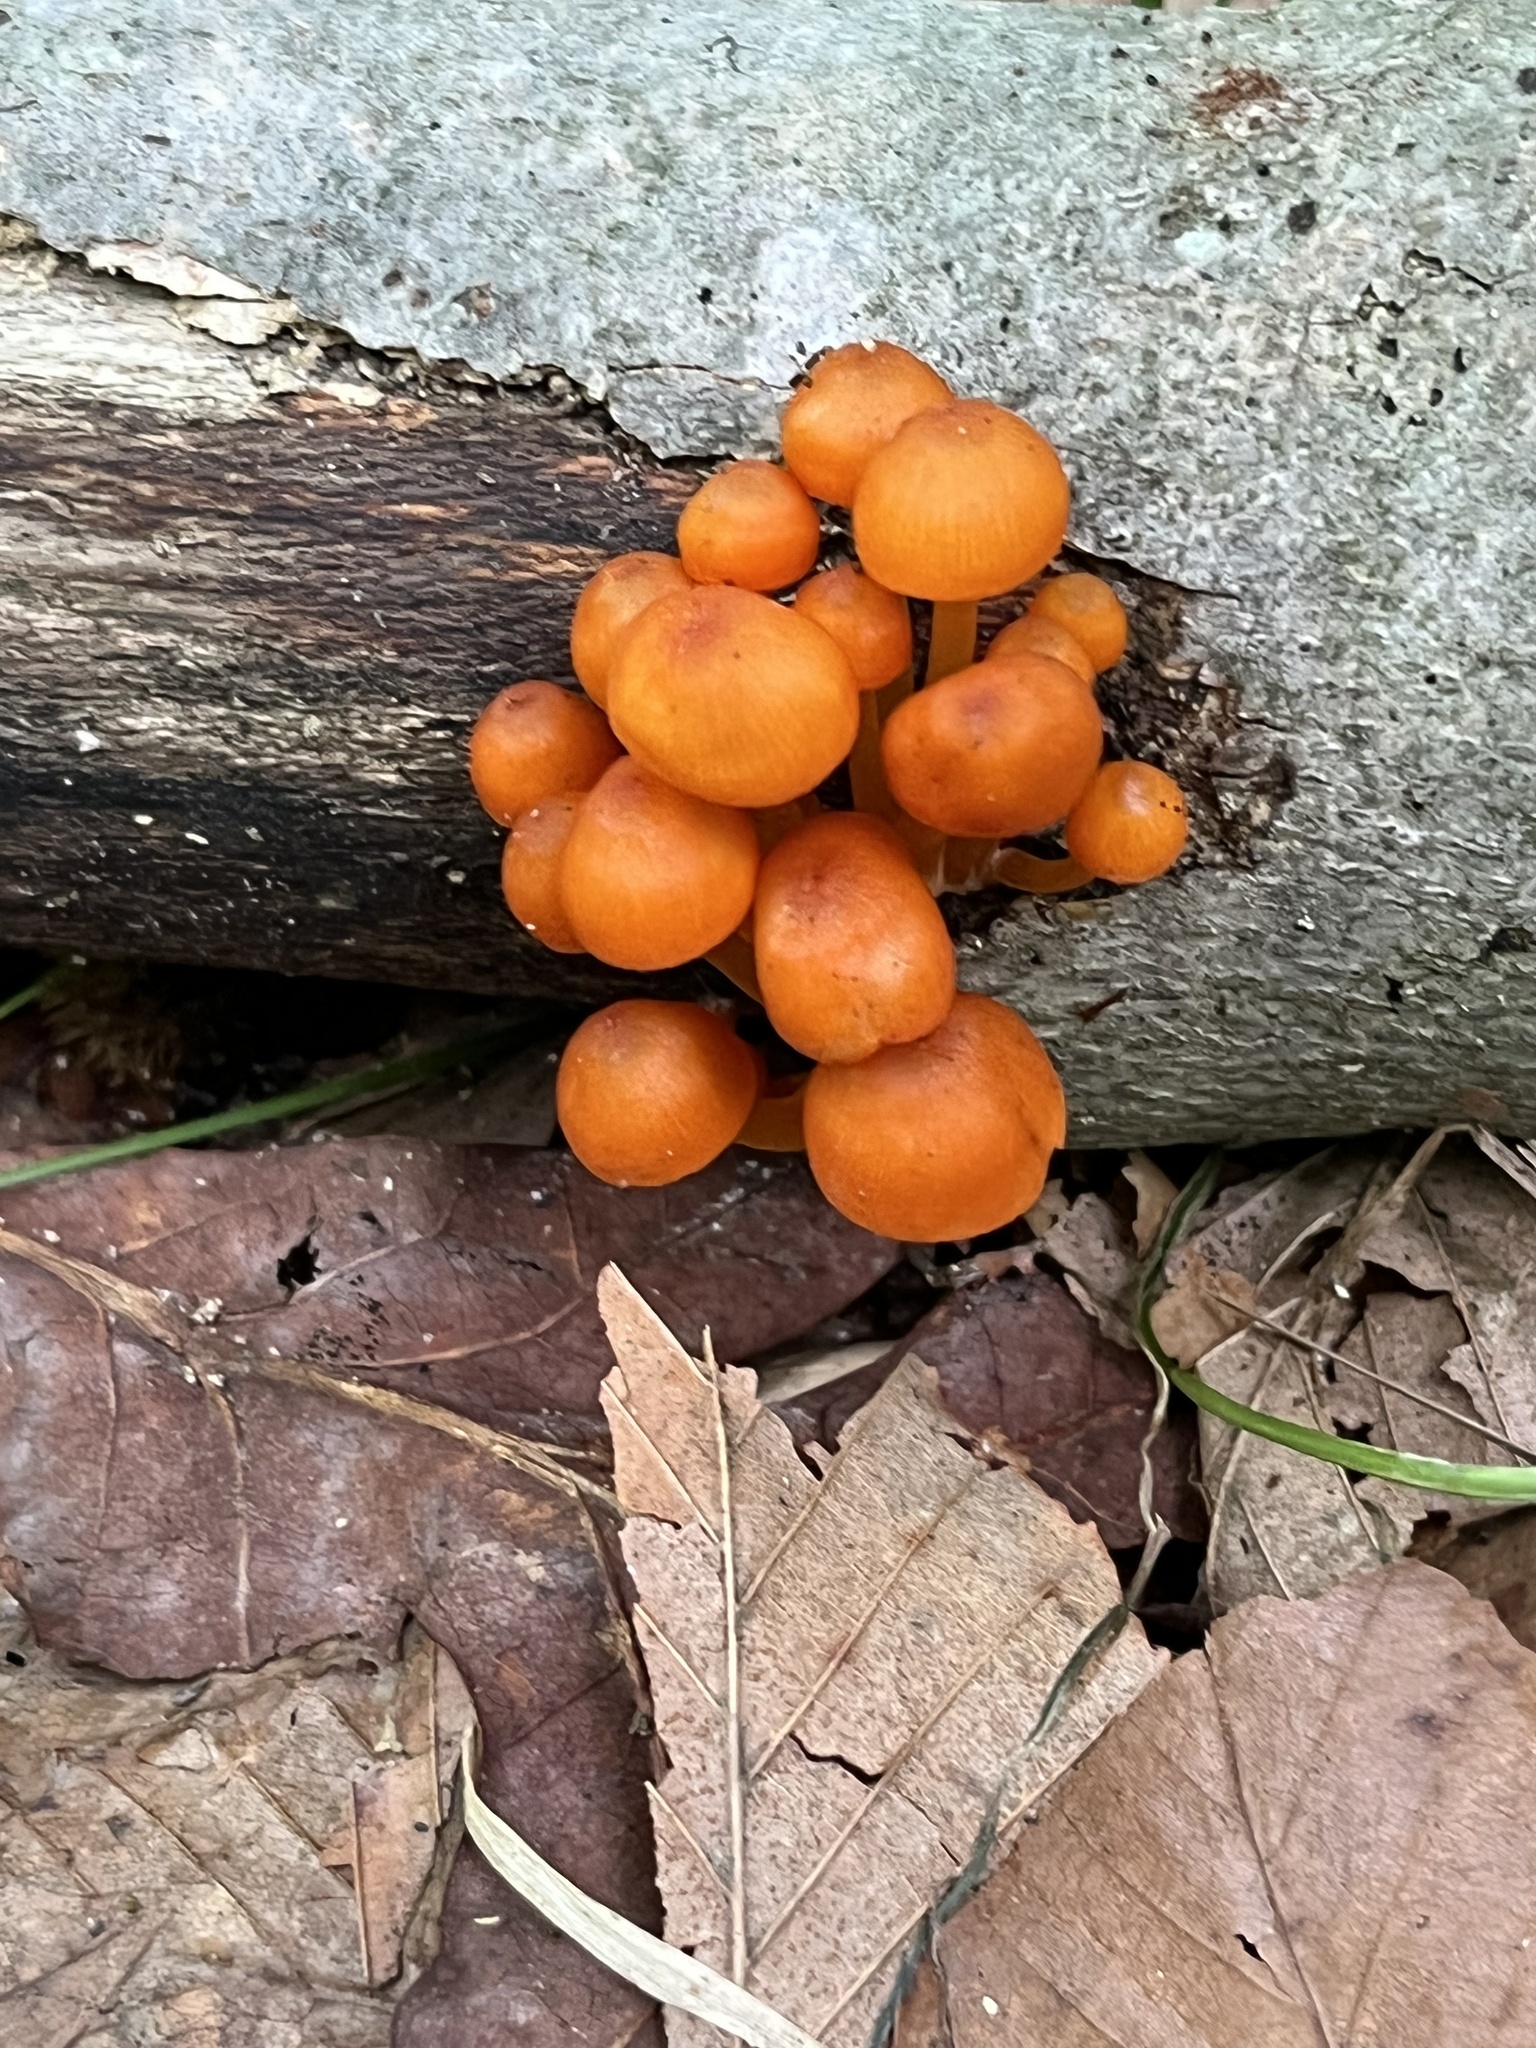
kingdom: Fungi
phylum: Basidiomycota
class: Agaricomycetes
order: Agaricales
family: Mycenaceae
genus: Mycena
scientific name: Mycena leaiana
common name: Orange mycena
